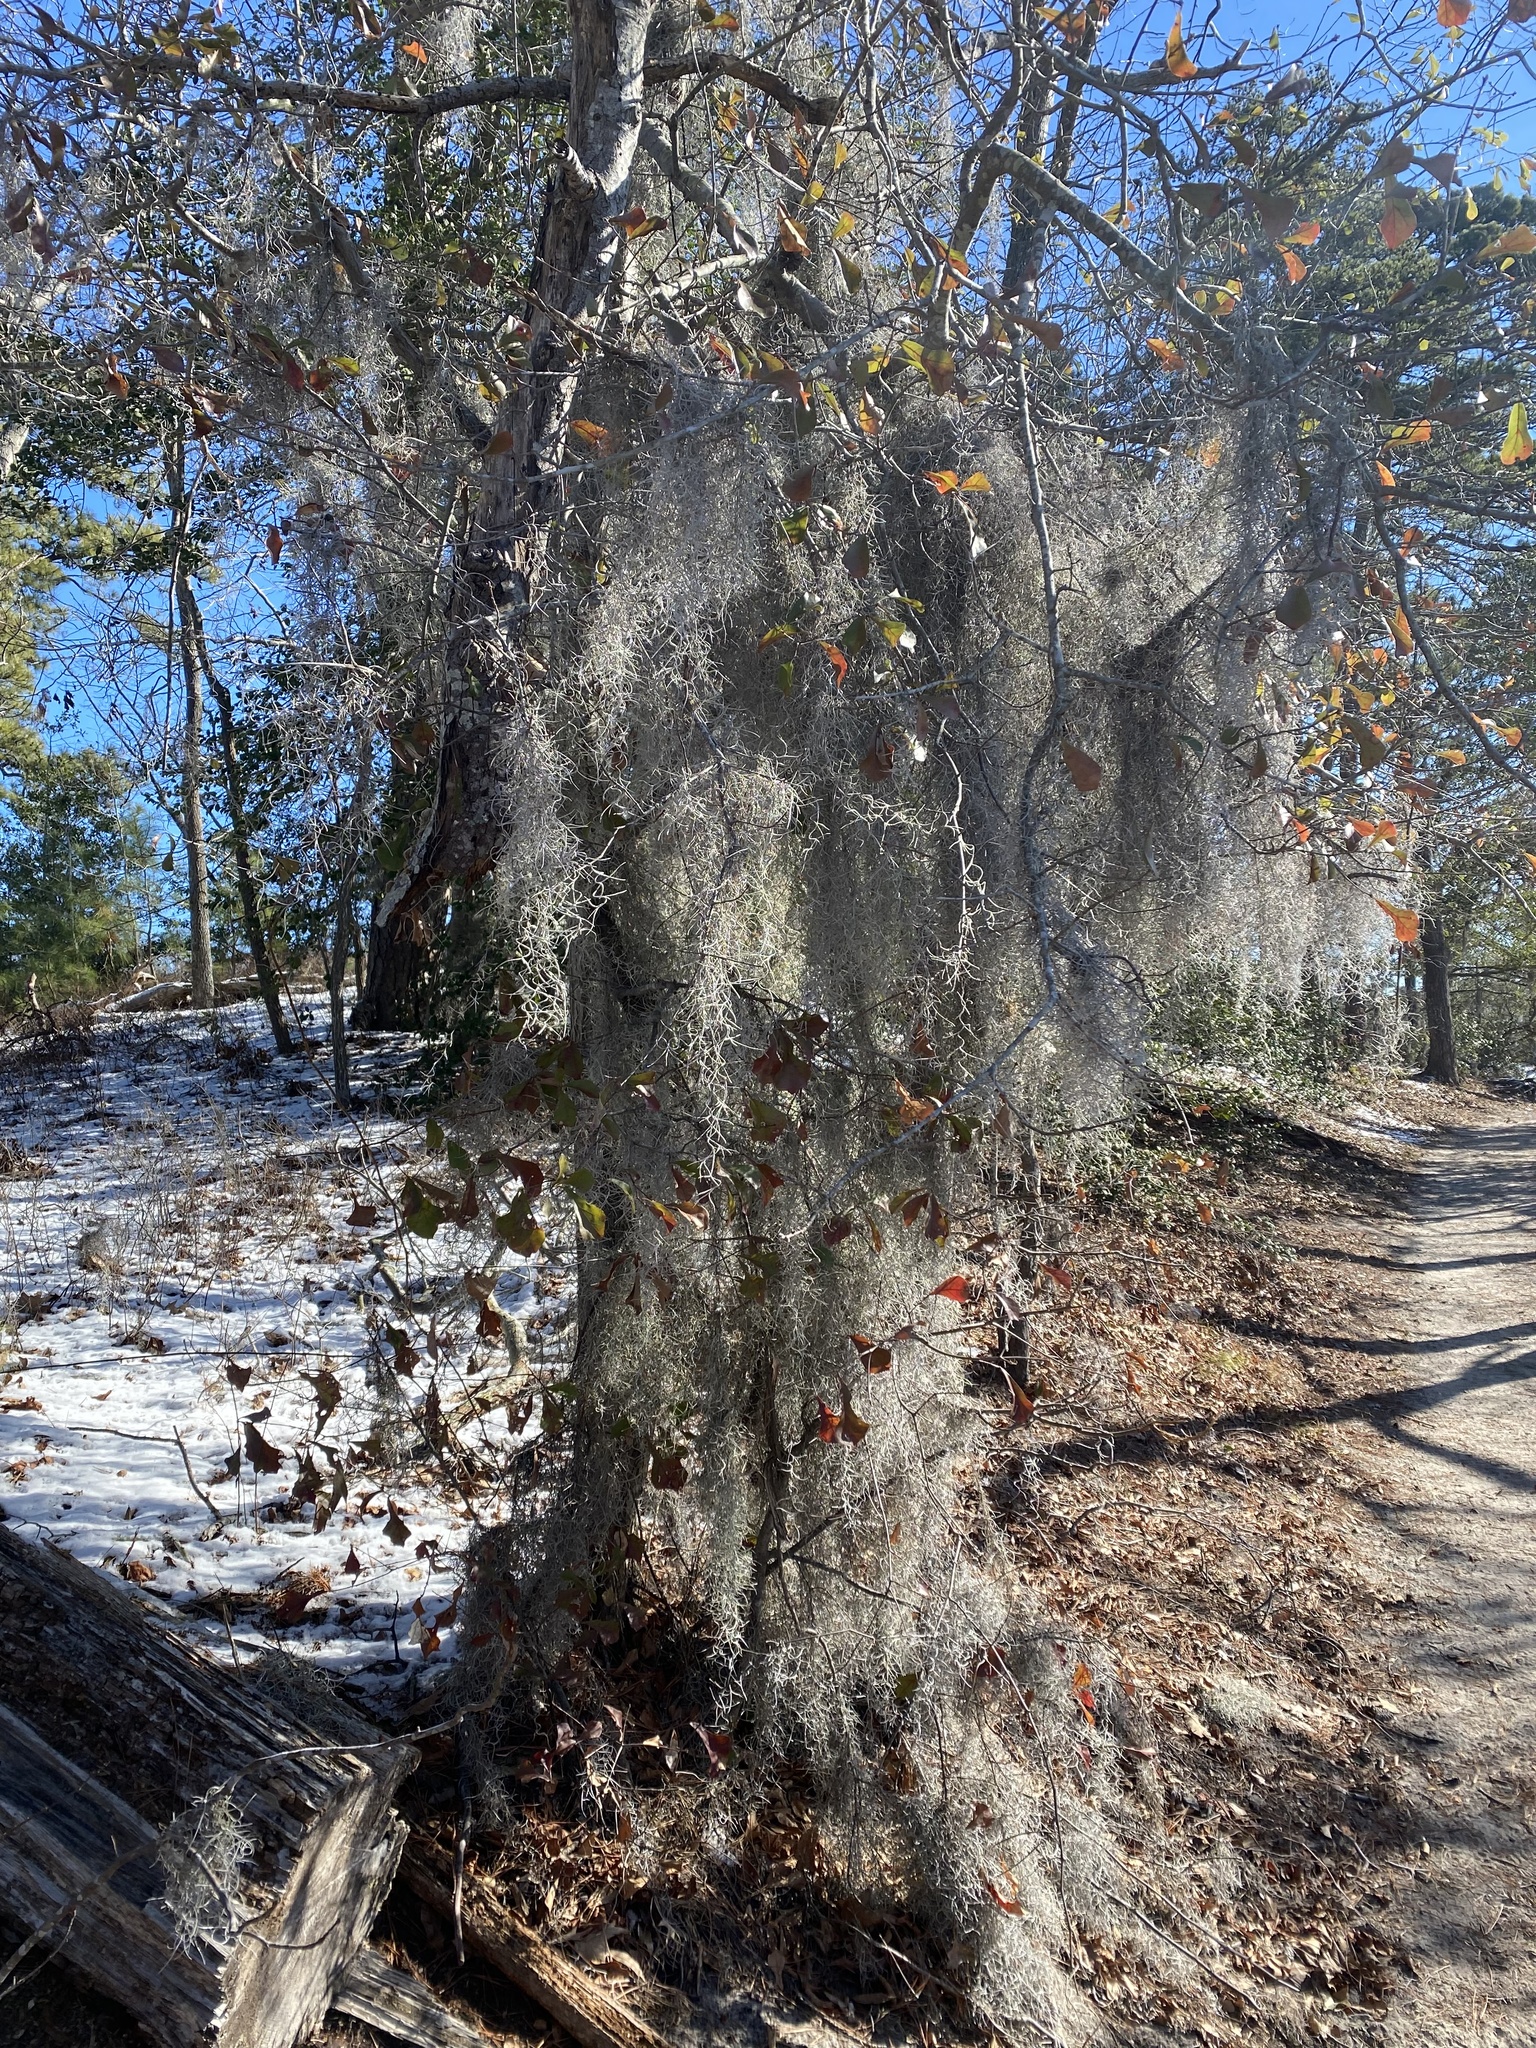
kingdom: Plantae
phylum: Tracheophyta
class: Liliopsida
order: Poales
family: Bromeliaceae
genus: Tillandsia
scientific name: Tillandsia usneoides
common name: Spanish moss
